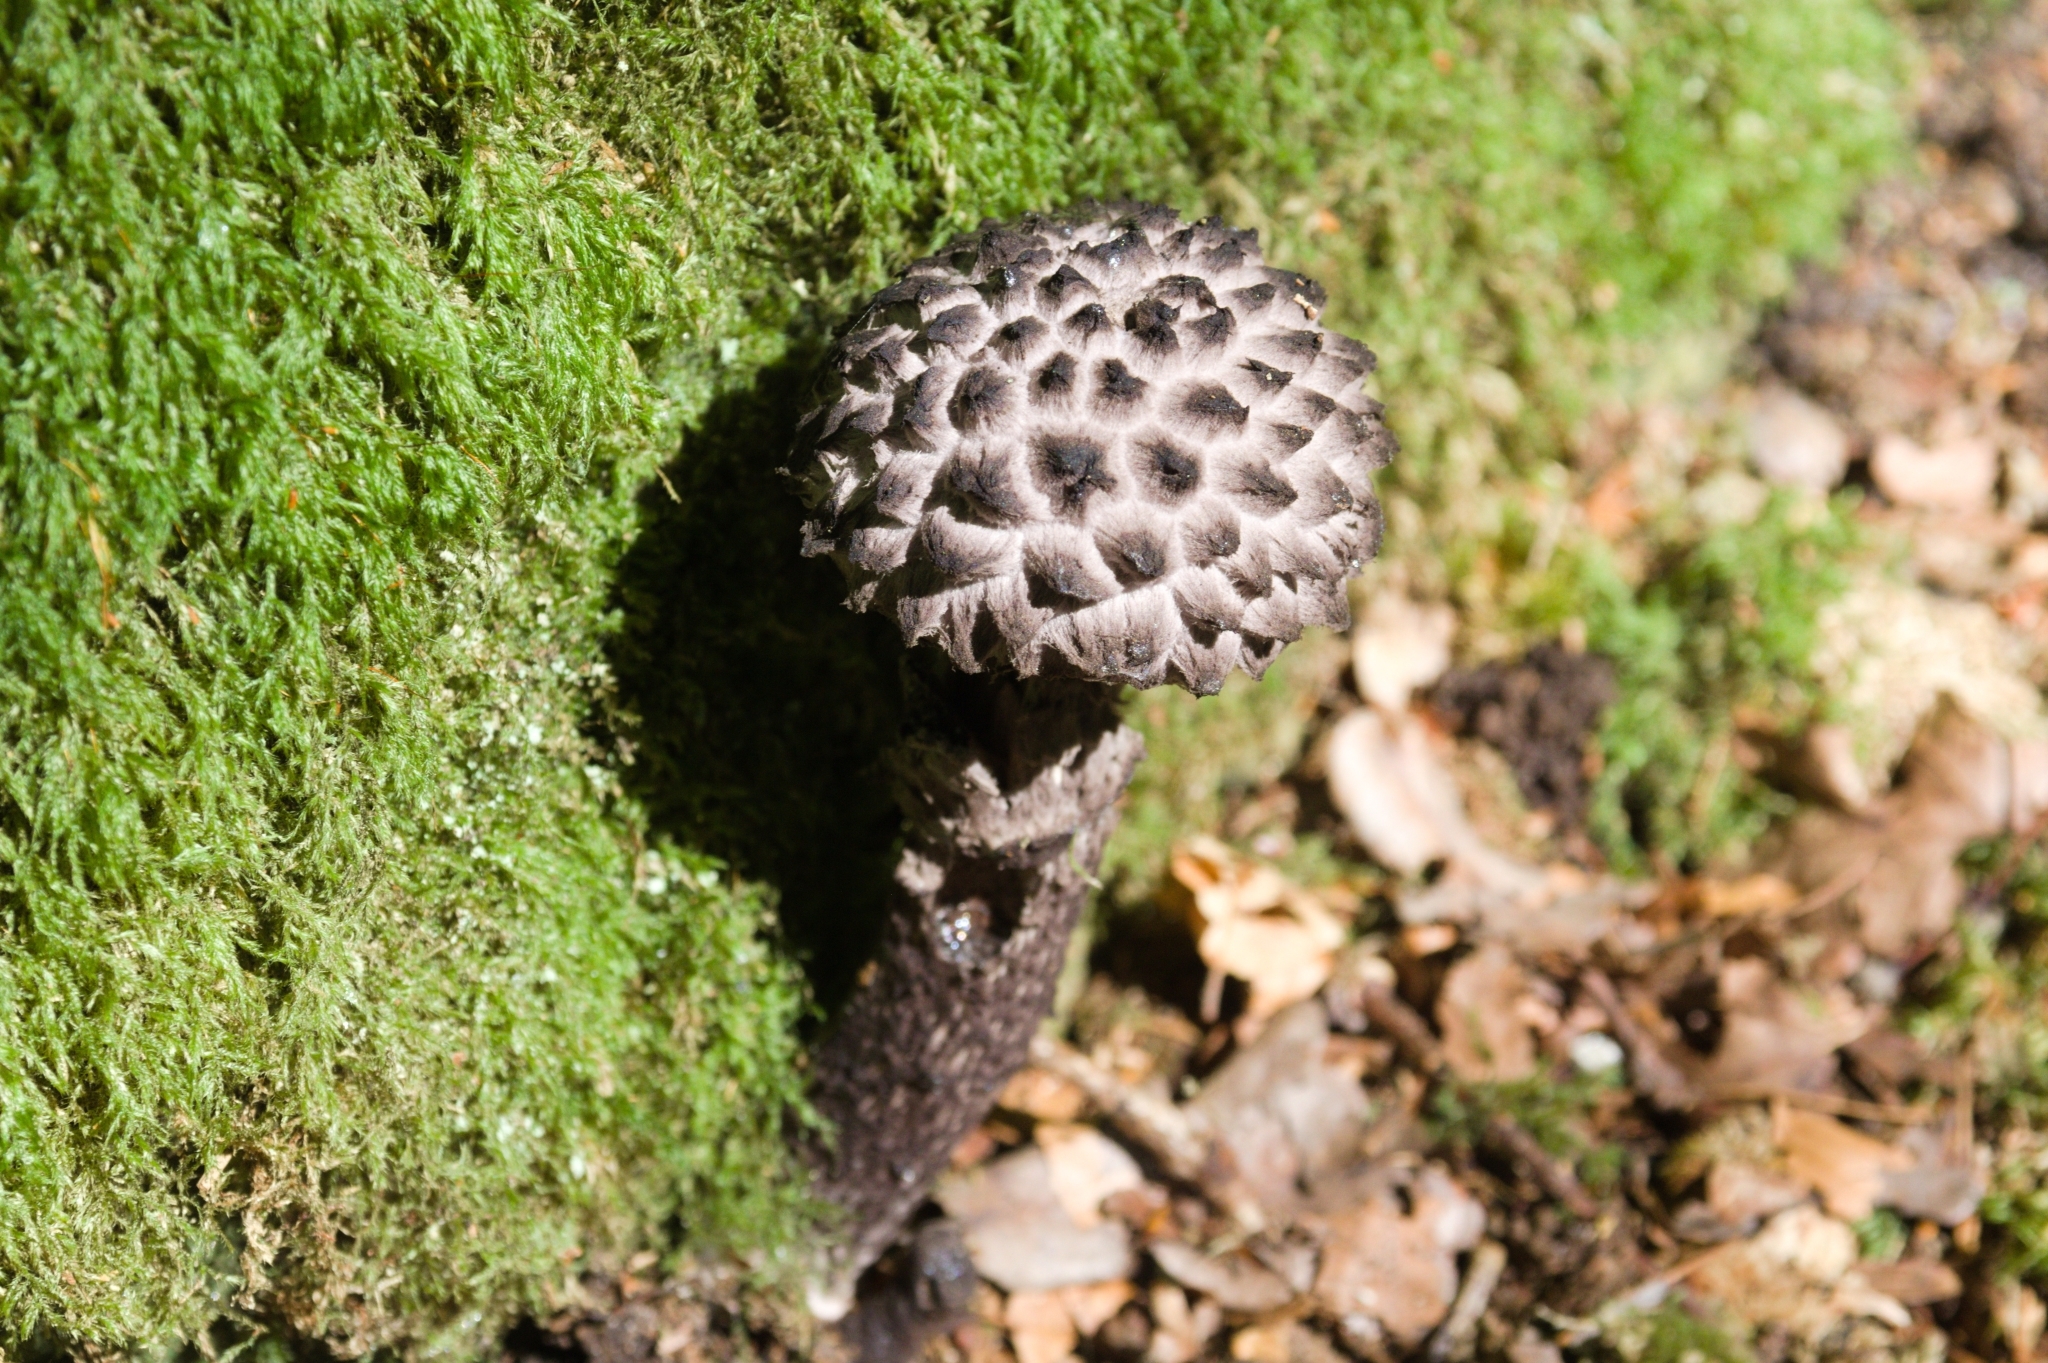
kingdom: Fungi
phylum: Basidiomycota
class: Agaricomycetes
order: Boletales
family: Boletaceae
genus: Strobilomyces
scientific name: Strobilomyces strobilaceus
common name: Old man of the woods
